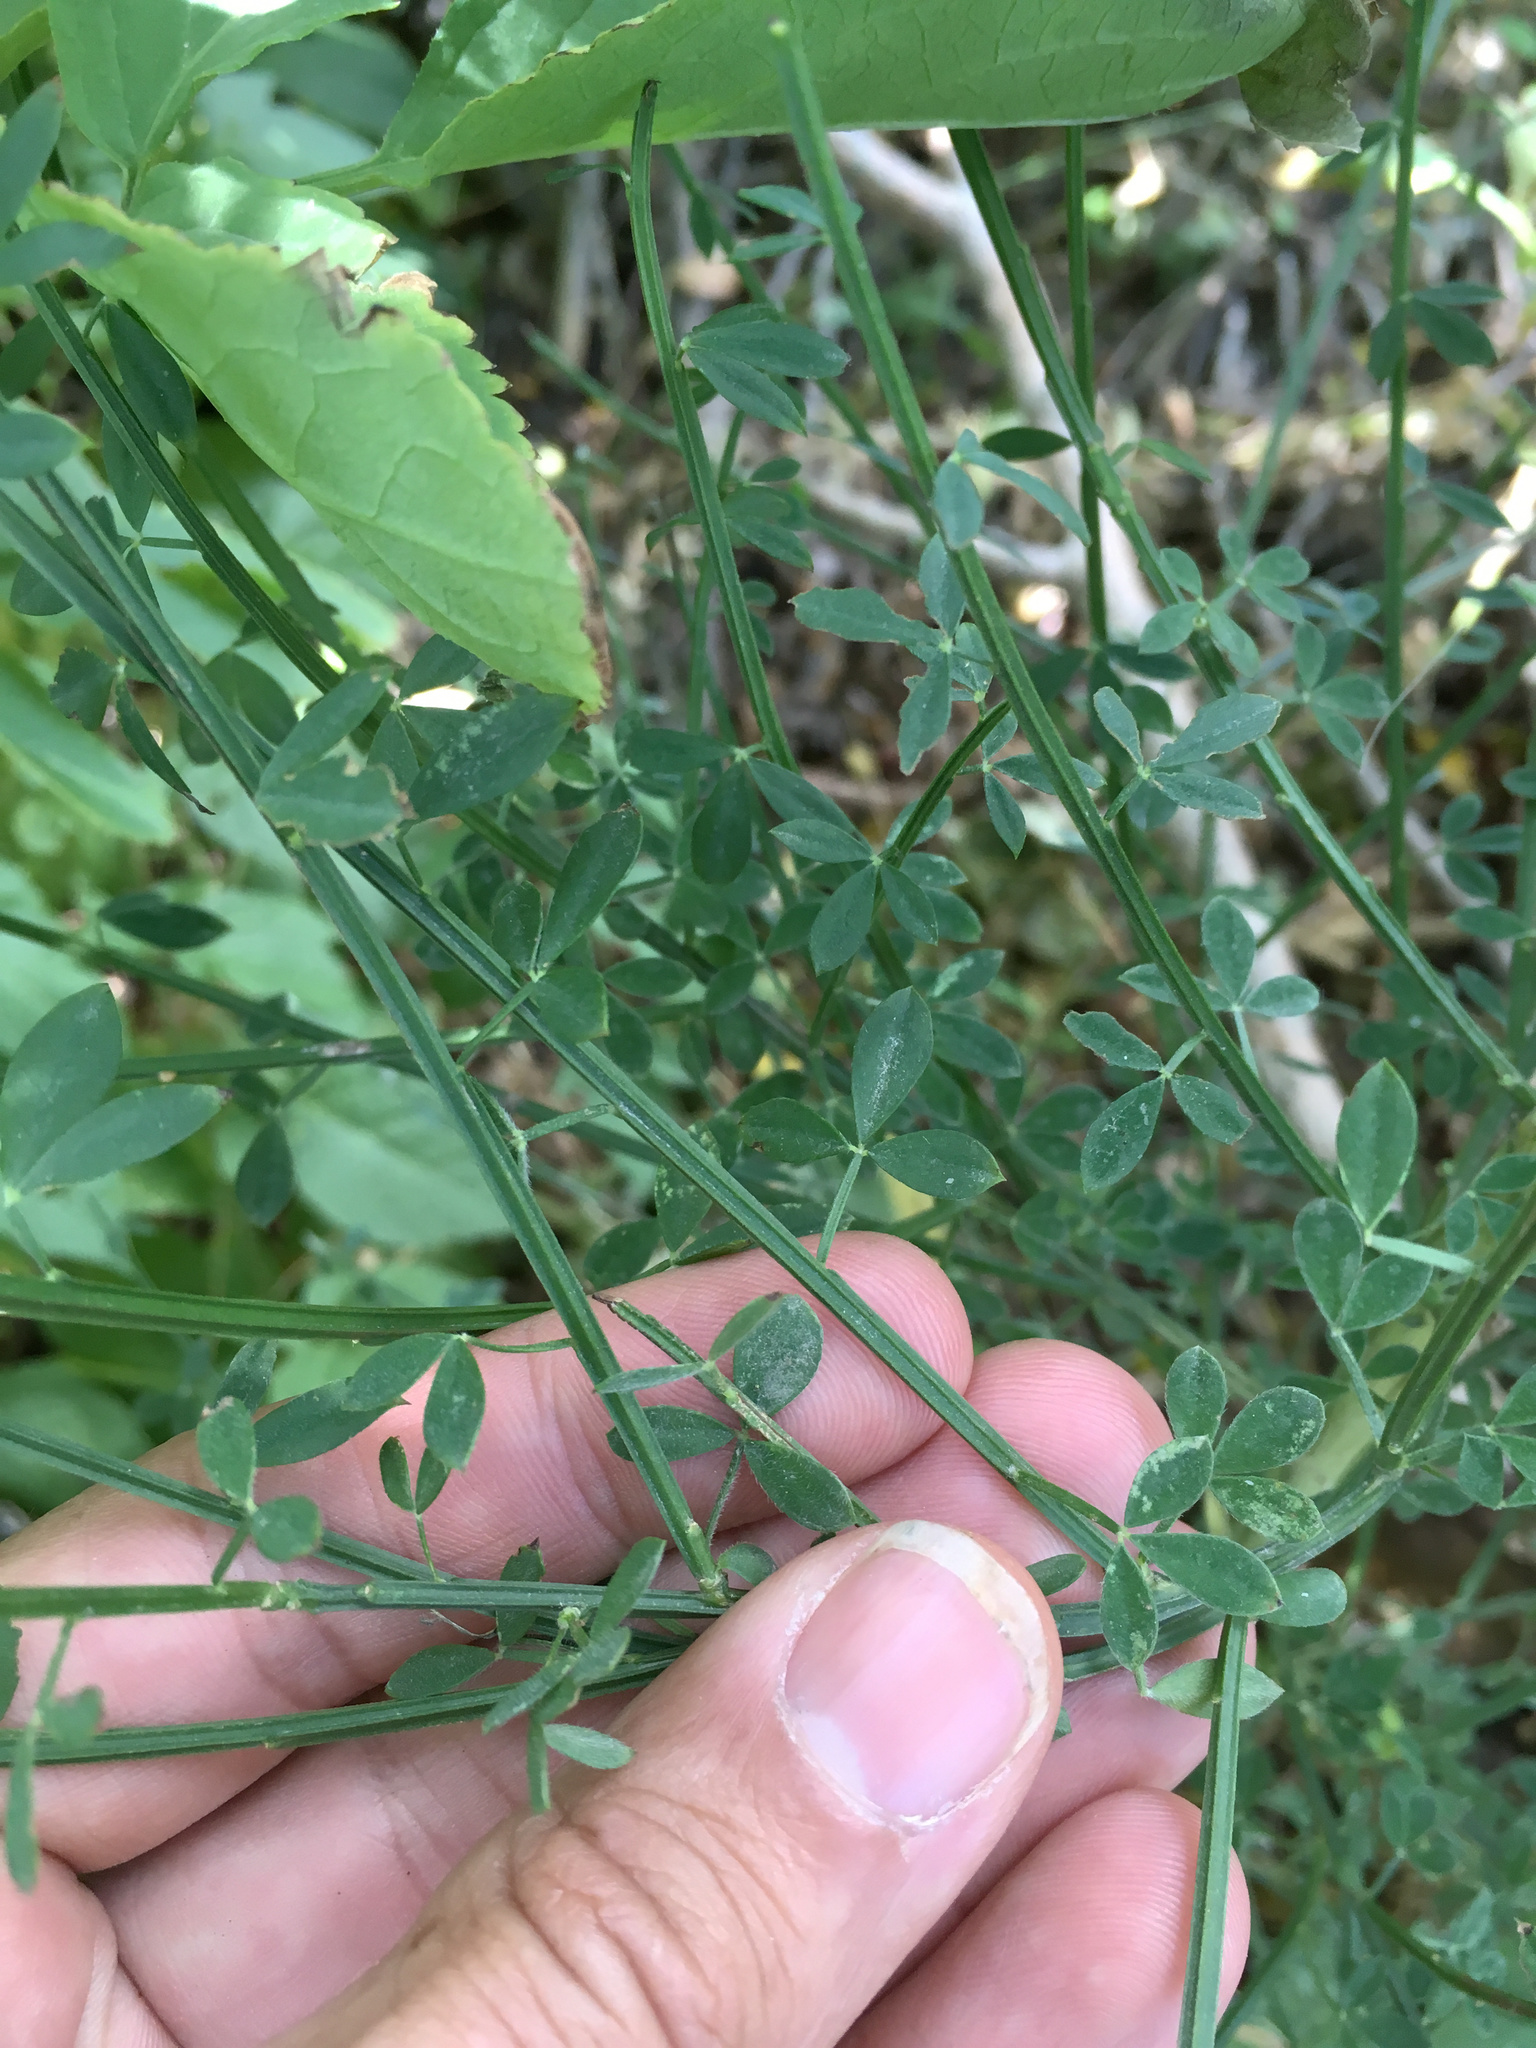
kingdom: Plantae
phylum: Tracheophyta
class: Magnoliopsida
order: Fabales
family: Fabaceae
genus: Cytisus
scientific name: Cytisus scoparius
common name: Scotch broom
